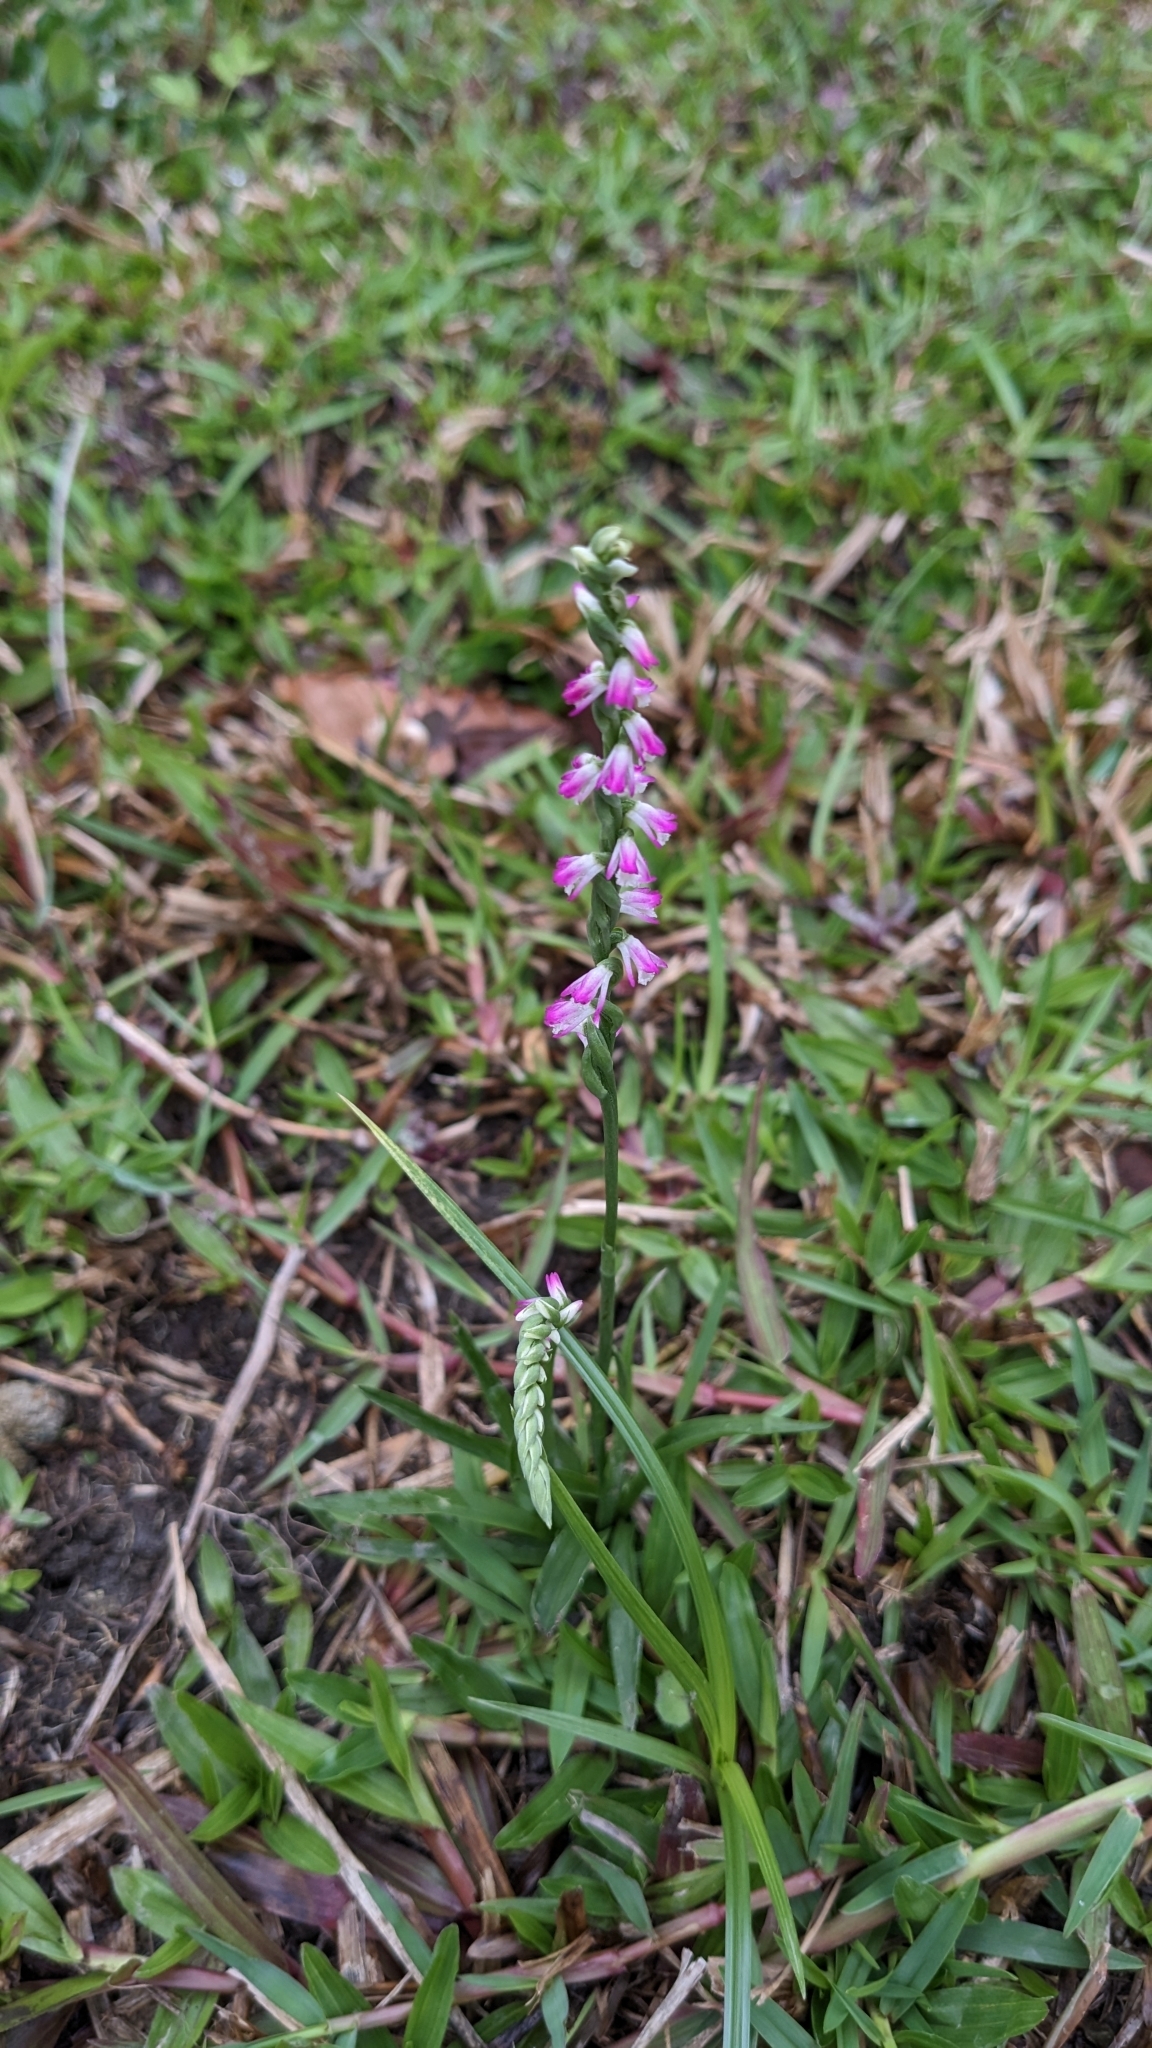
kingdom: Plantae
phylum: Tracheophyta
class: Liliopsida
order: Asparagales
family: Orchidaceae
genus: Spiranthes
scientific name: Spiranthes sinensis
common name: Chinese spiranthes
